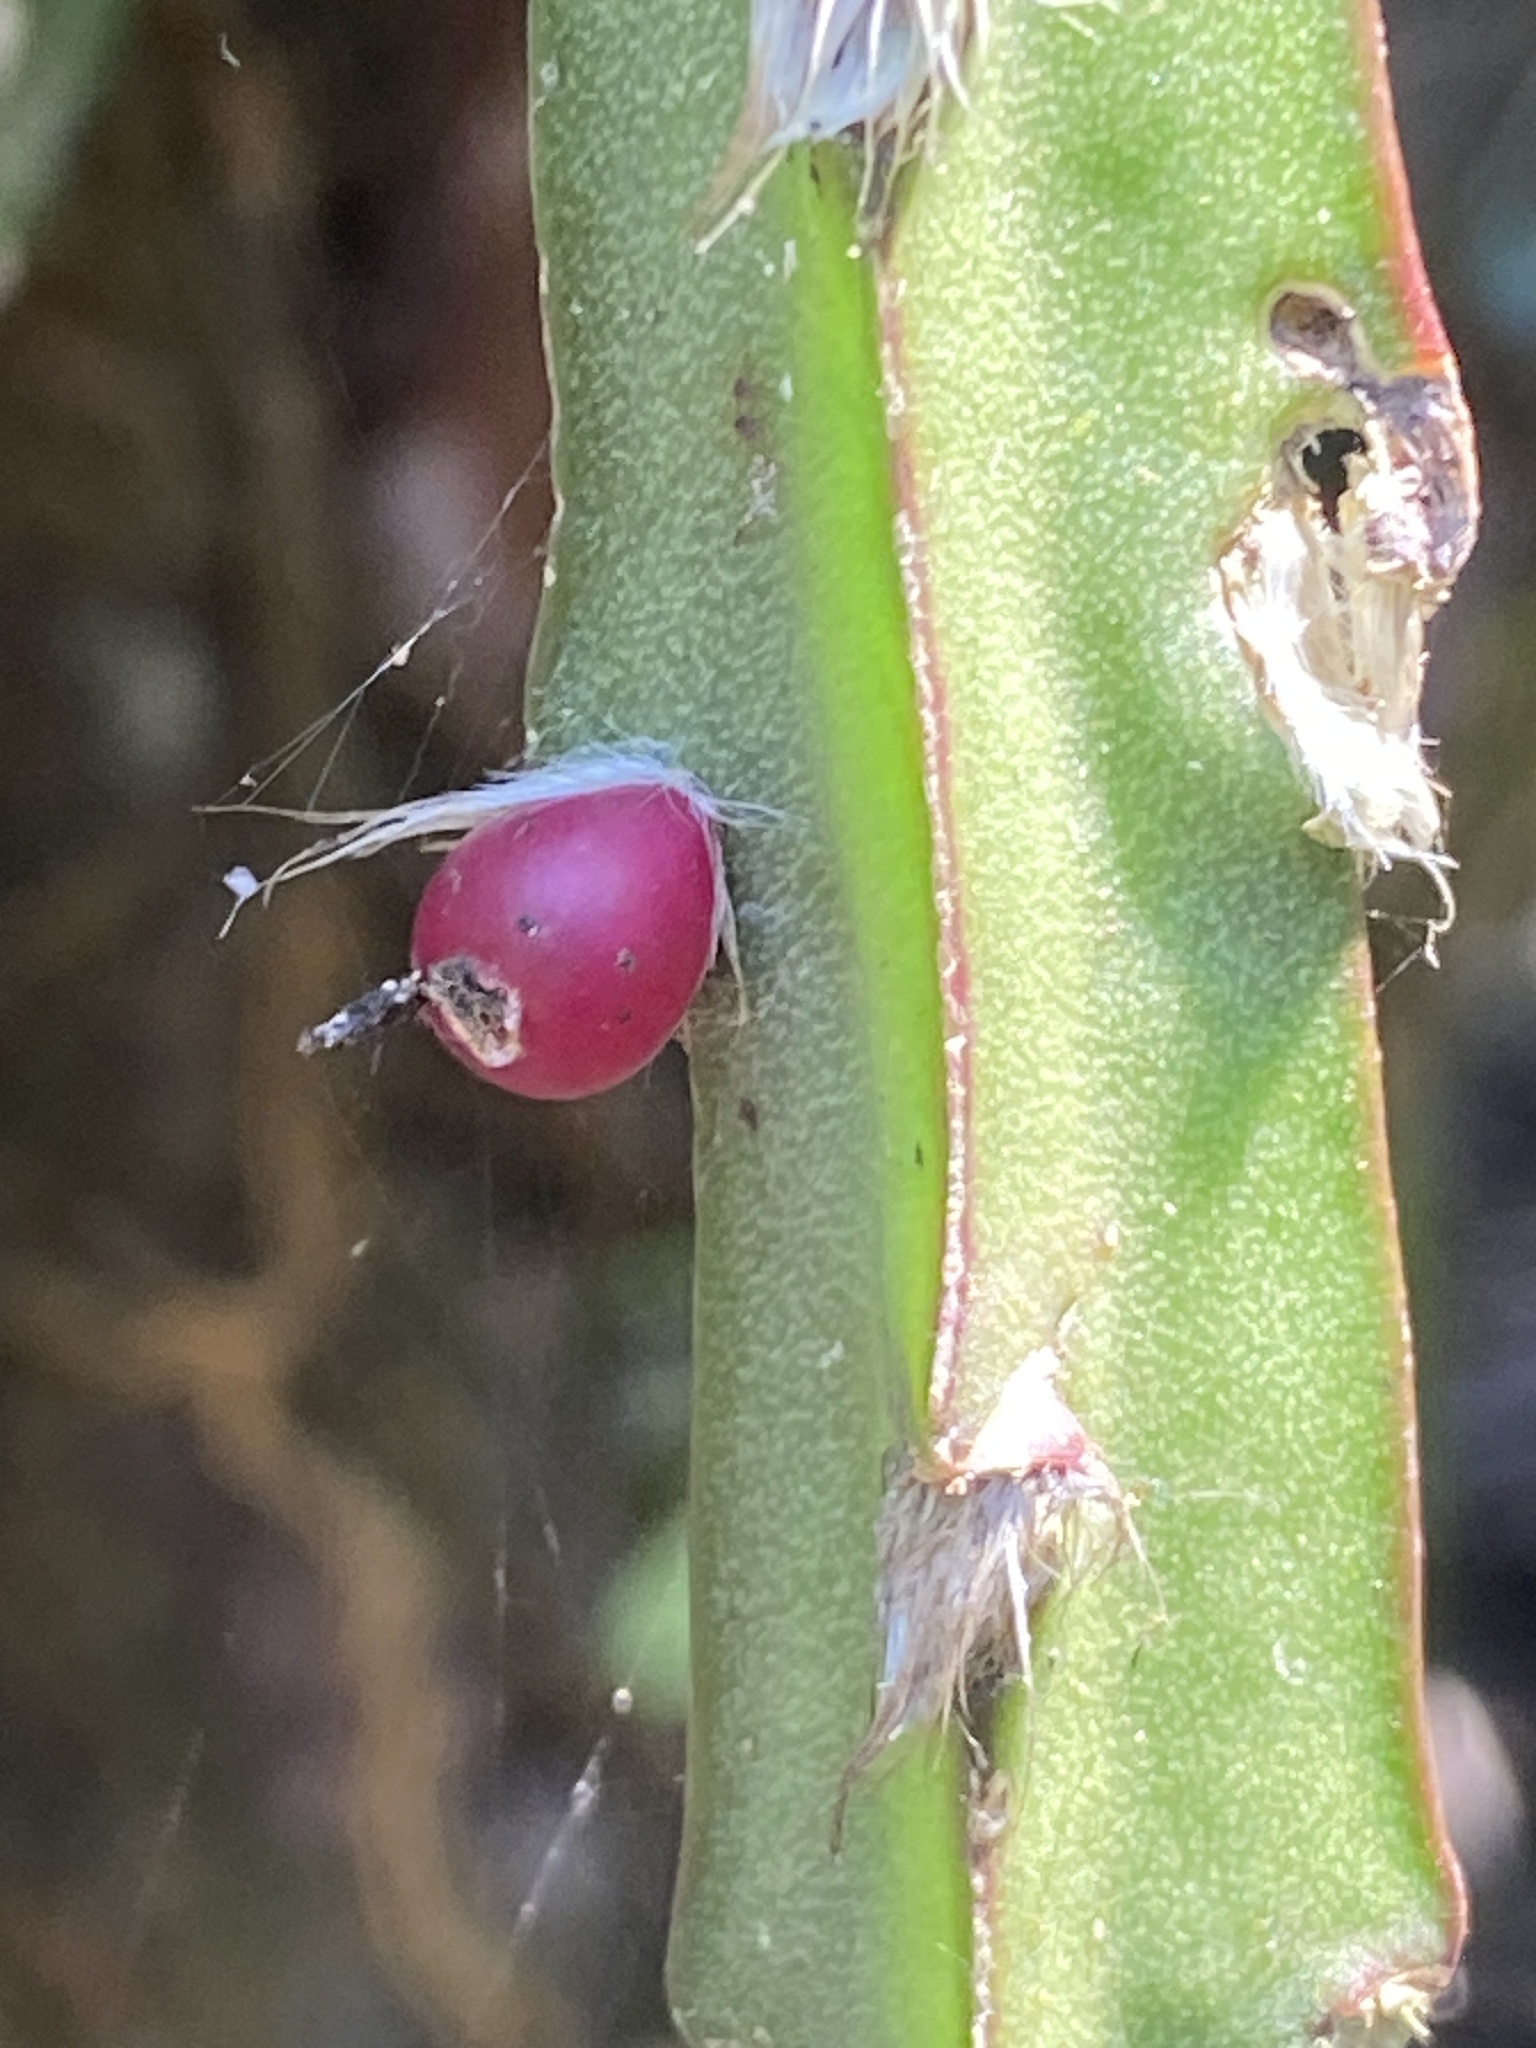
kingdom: Plantae
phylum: Tracheophyta
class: Magnoliopsida
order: Caryophyllales
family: Cactaceae
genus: Lepismium
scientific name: Lepismium cruciforme
